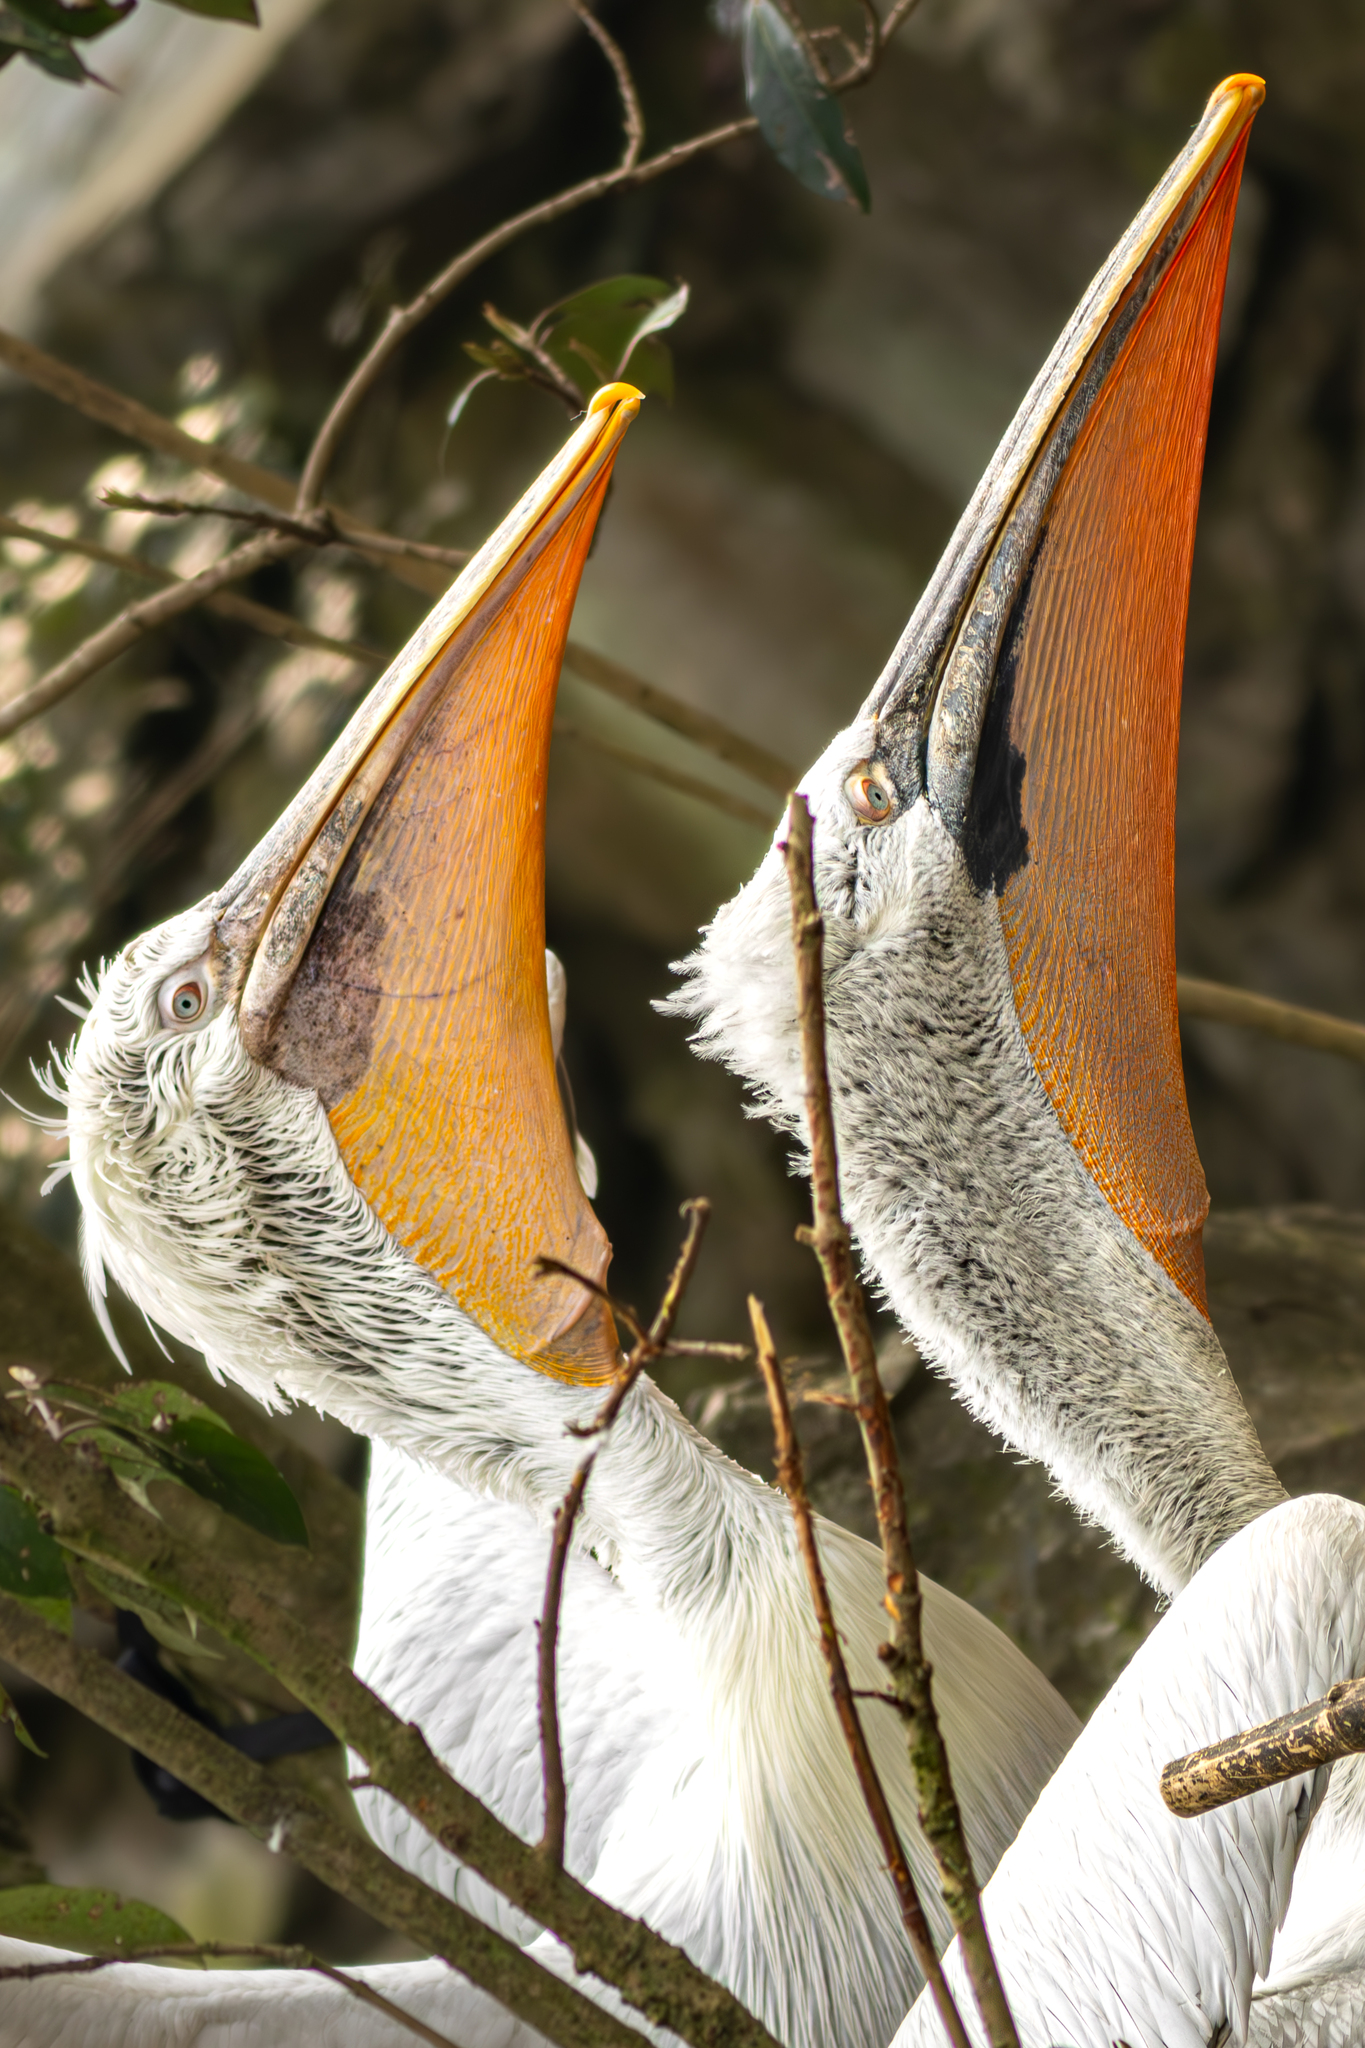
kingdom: Animalia
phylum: Chordata
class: Aves
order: Pelecaniformes
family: Pelecanidae
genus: Pelecanus
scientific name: Pelecanus crispus
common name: Dalmatian pelican
